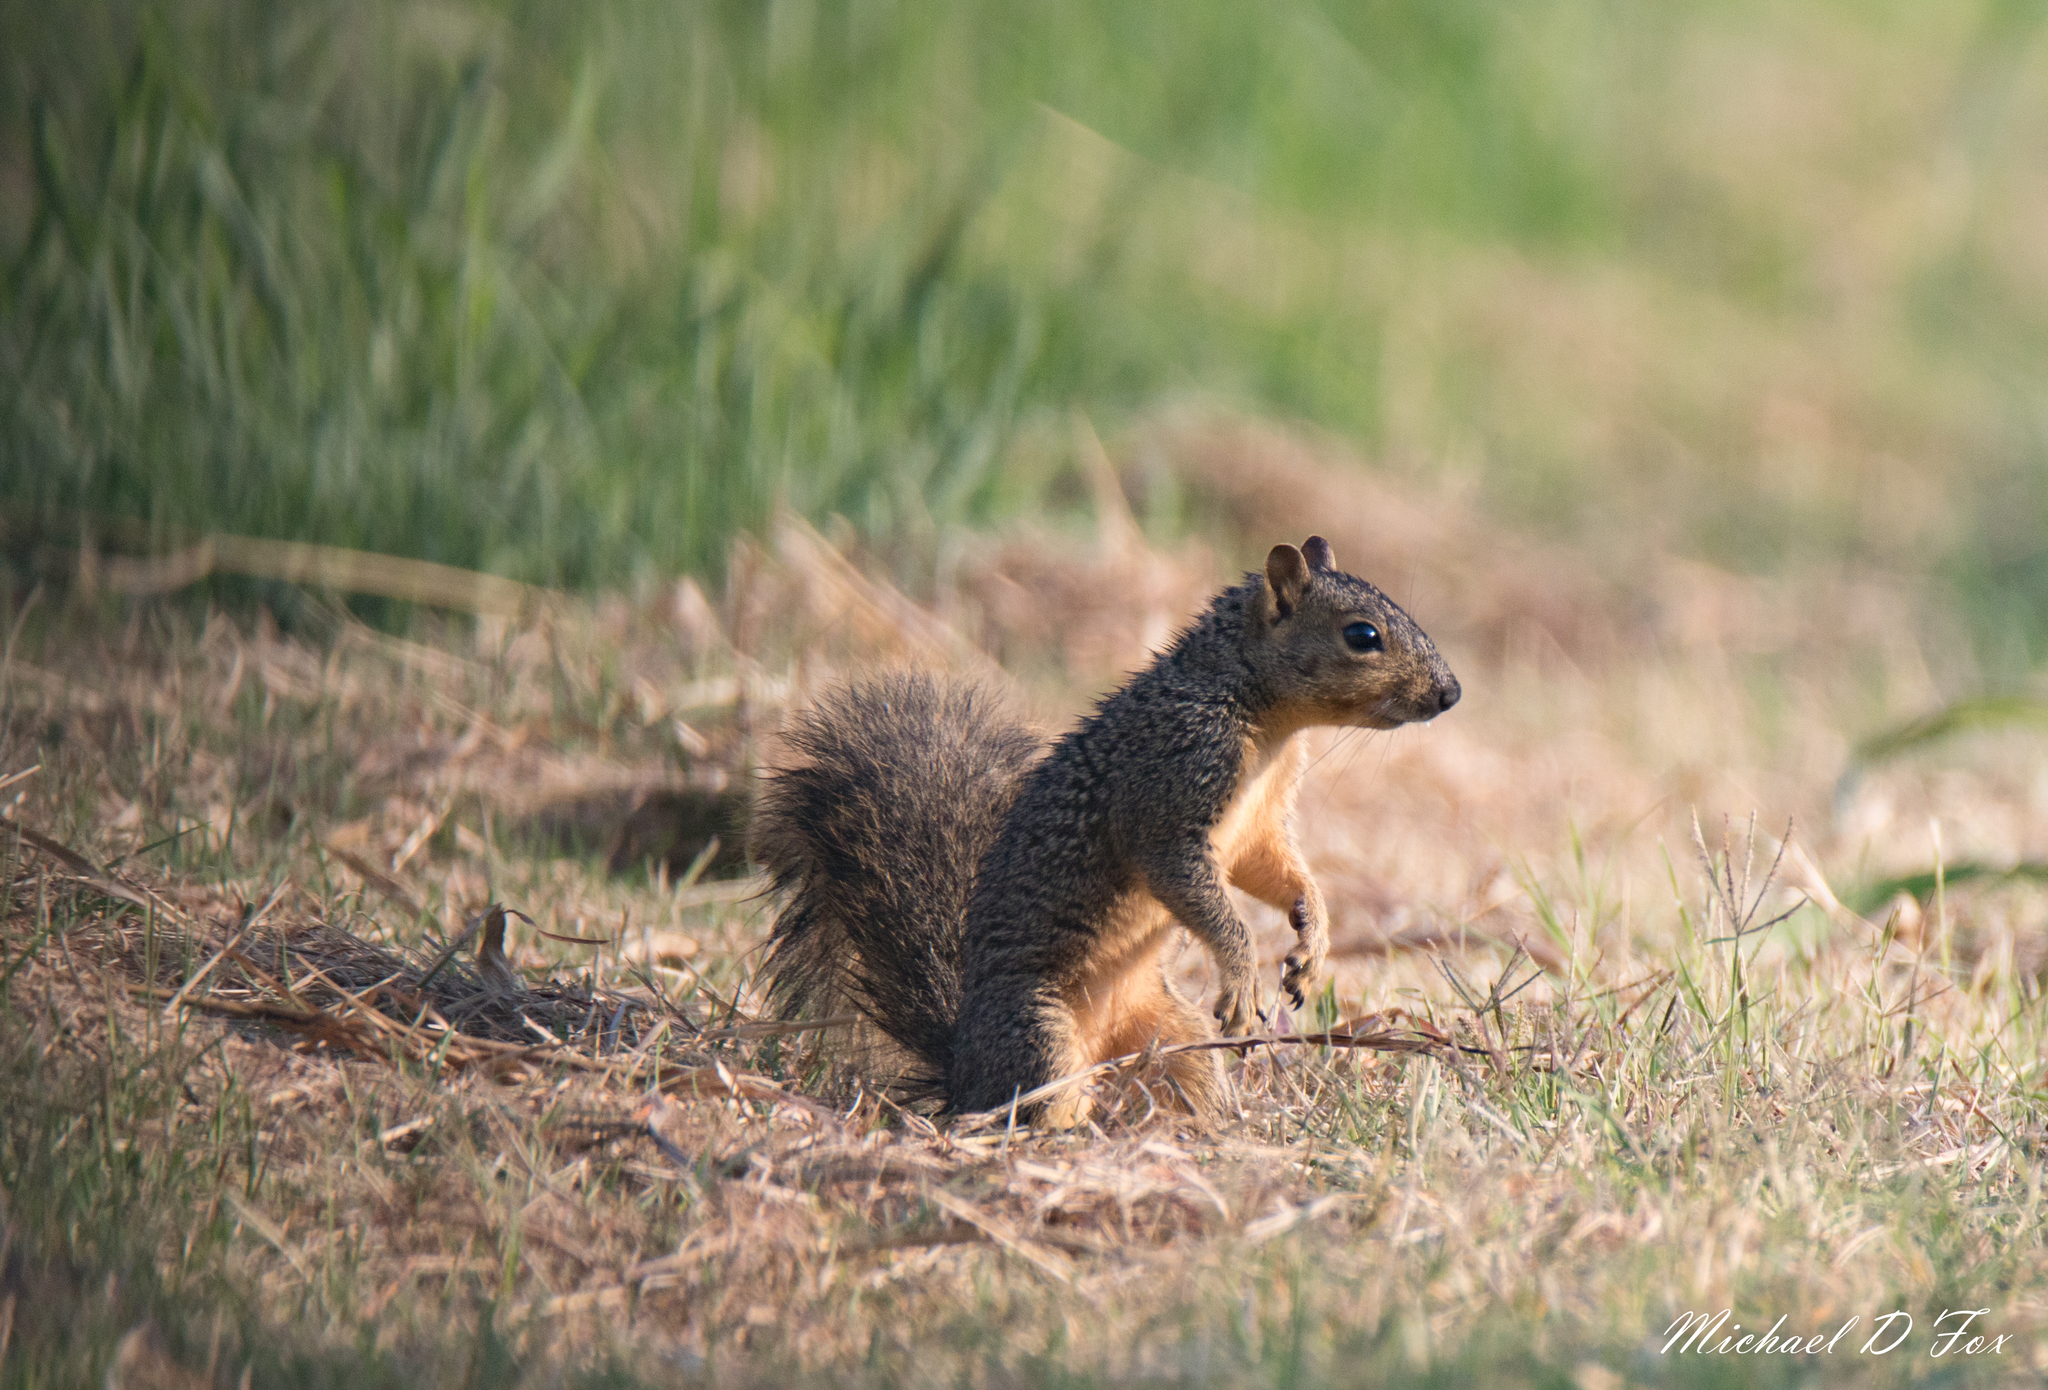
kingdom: Animalia
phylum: Chordata
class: Mammalia
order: Rodentia
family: Sciuridae
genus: Sciurus
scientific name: Sciurus niger
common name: Fox squirrel
